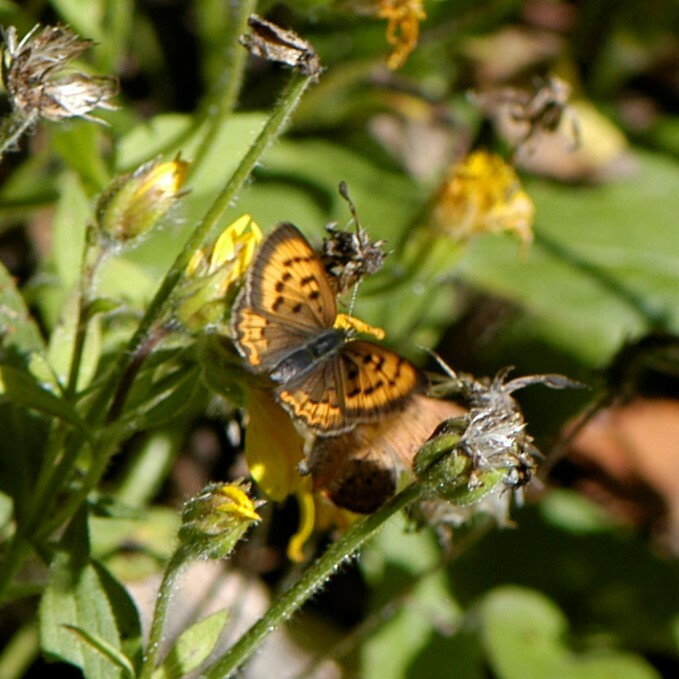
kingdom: Animalia
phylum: Arthropoda
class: Insecta
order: Lepidoptera
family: Lycaenidae
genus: Tharsalea
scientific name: Tharsalea dorcas
